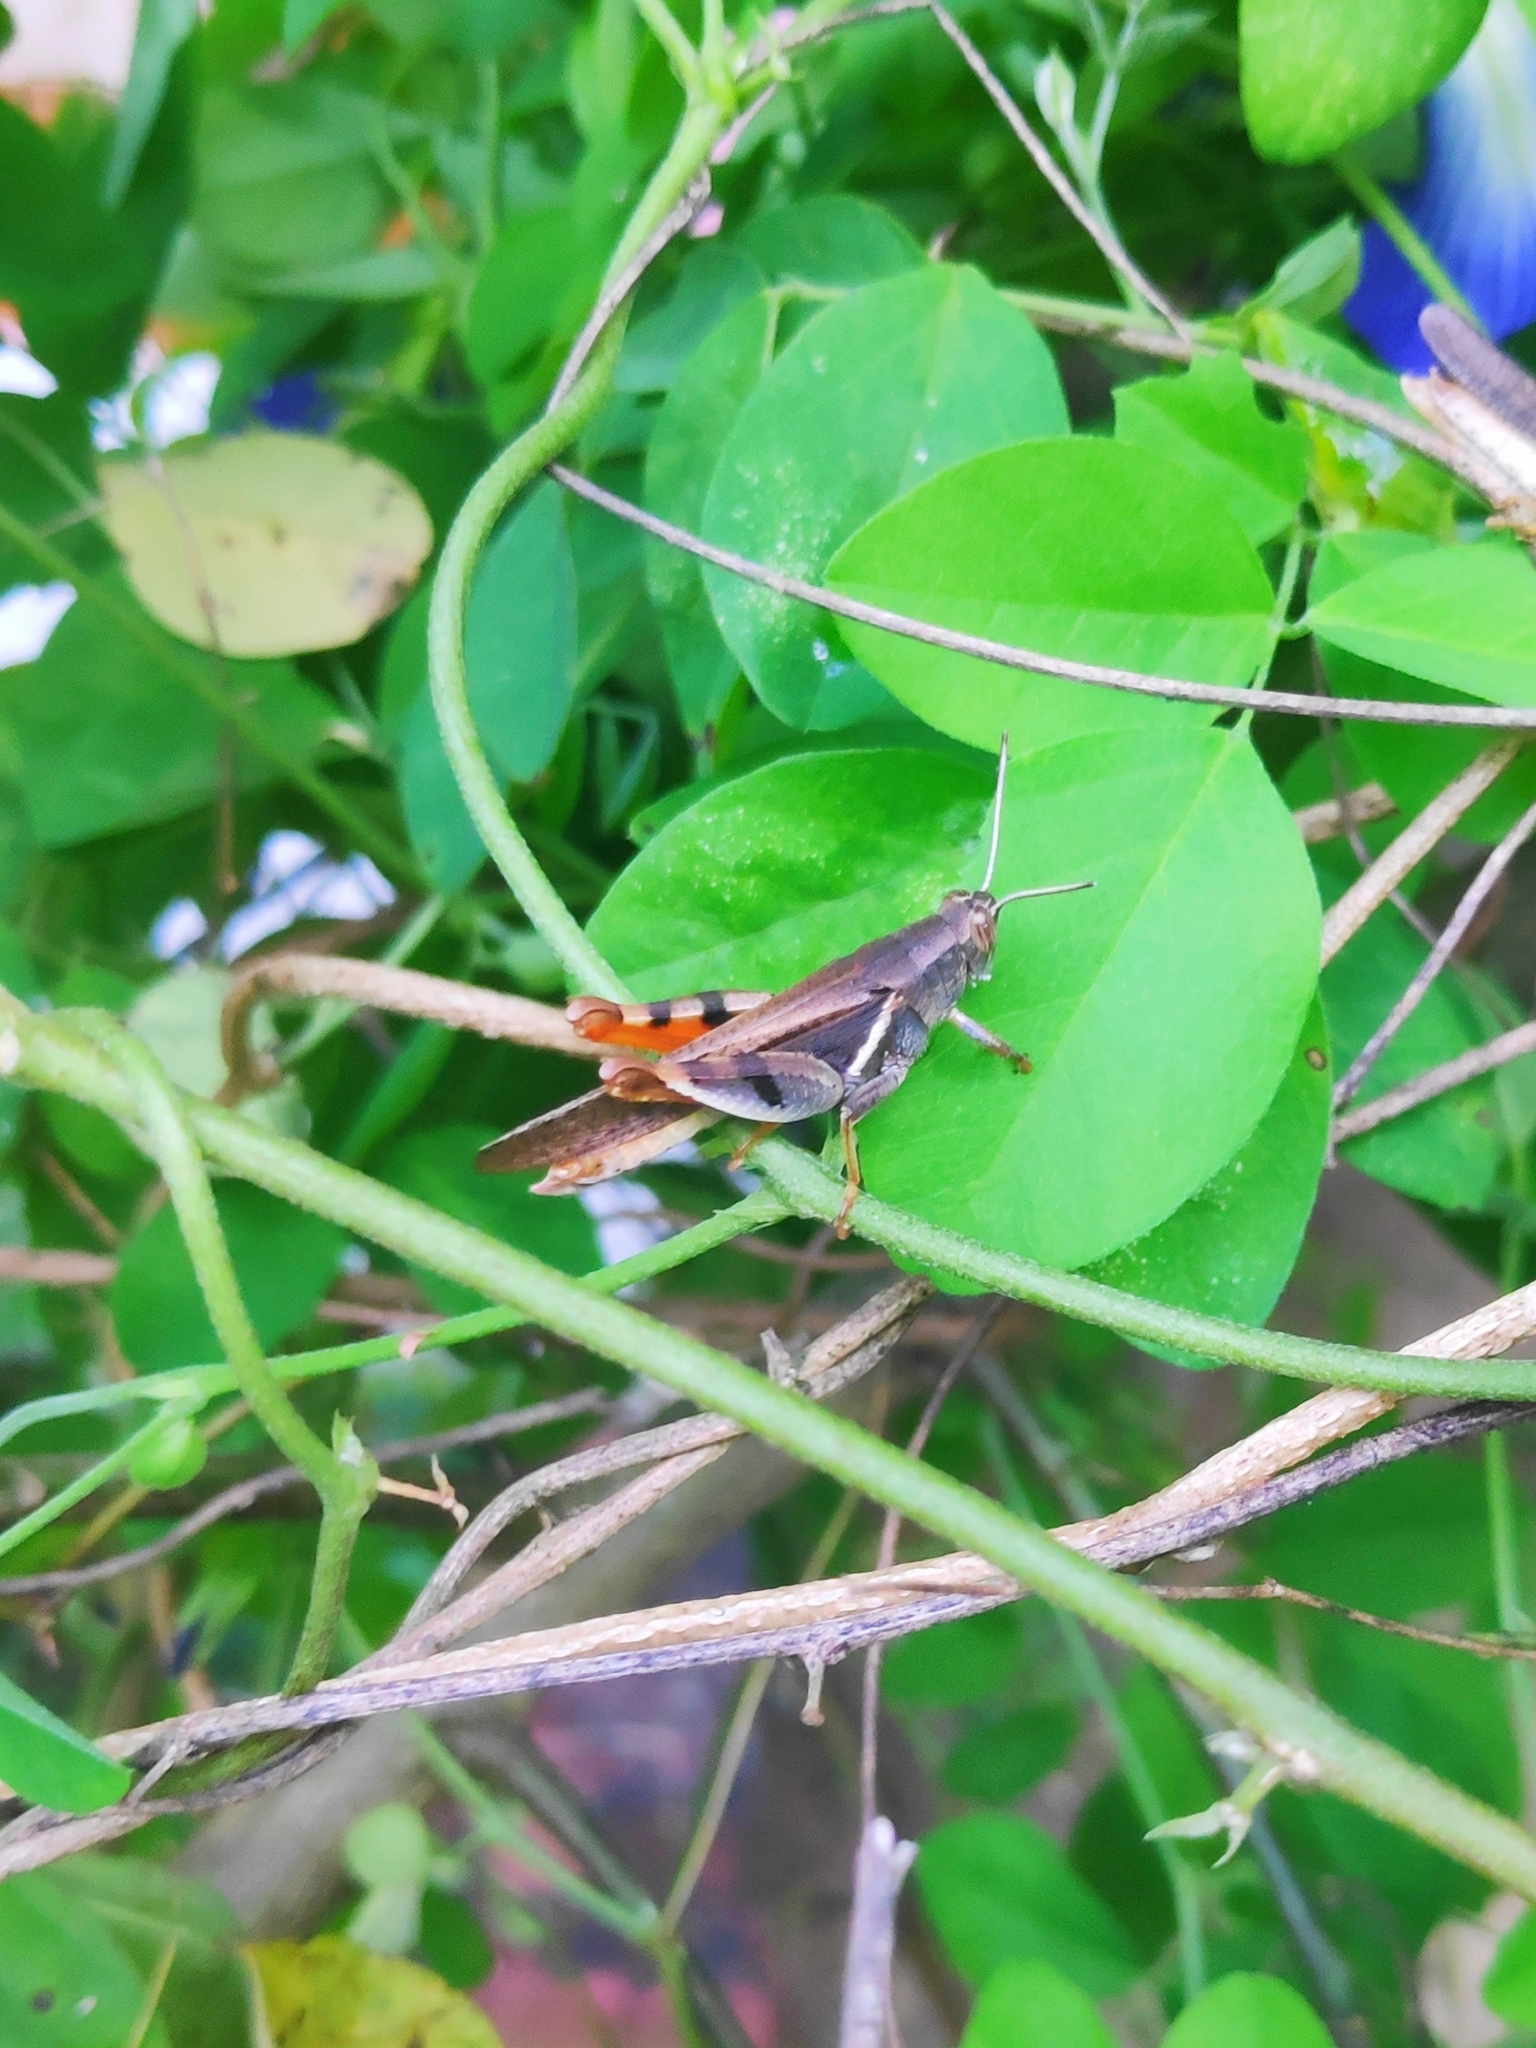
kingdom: Animalia
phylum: Arthropoda
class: Insecta
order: Orthoptera
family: Acrididae
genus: Diabolocatantops
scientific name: Diabolocatantops pinguis
